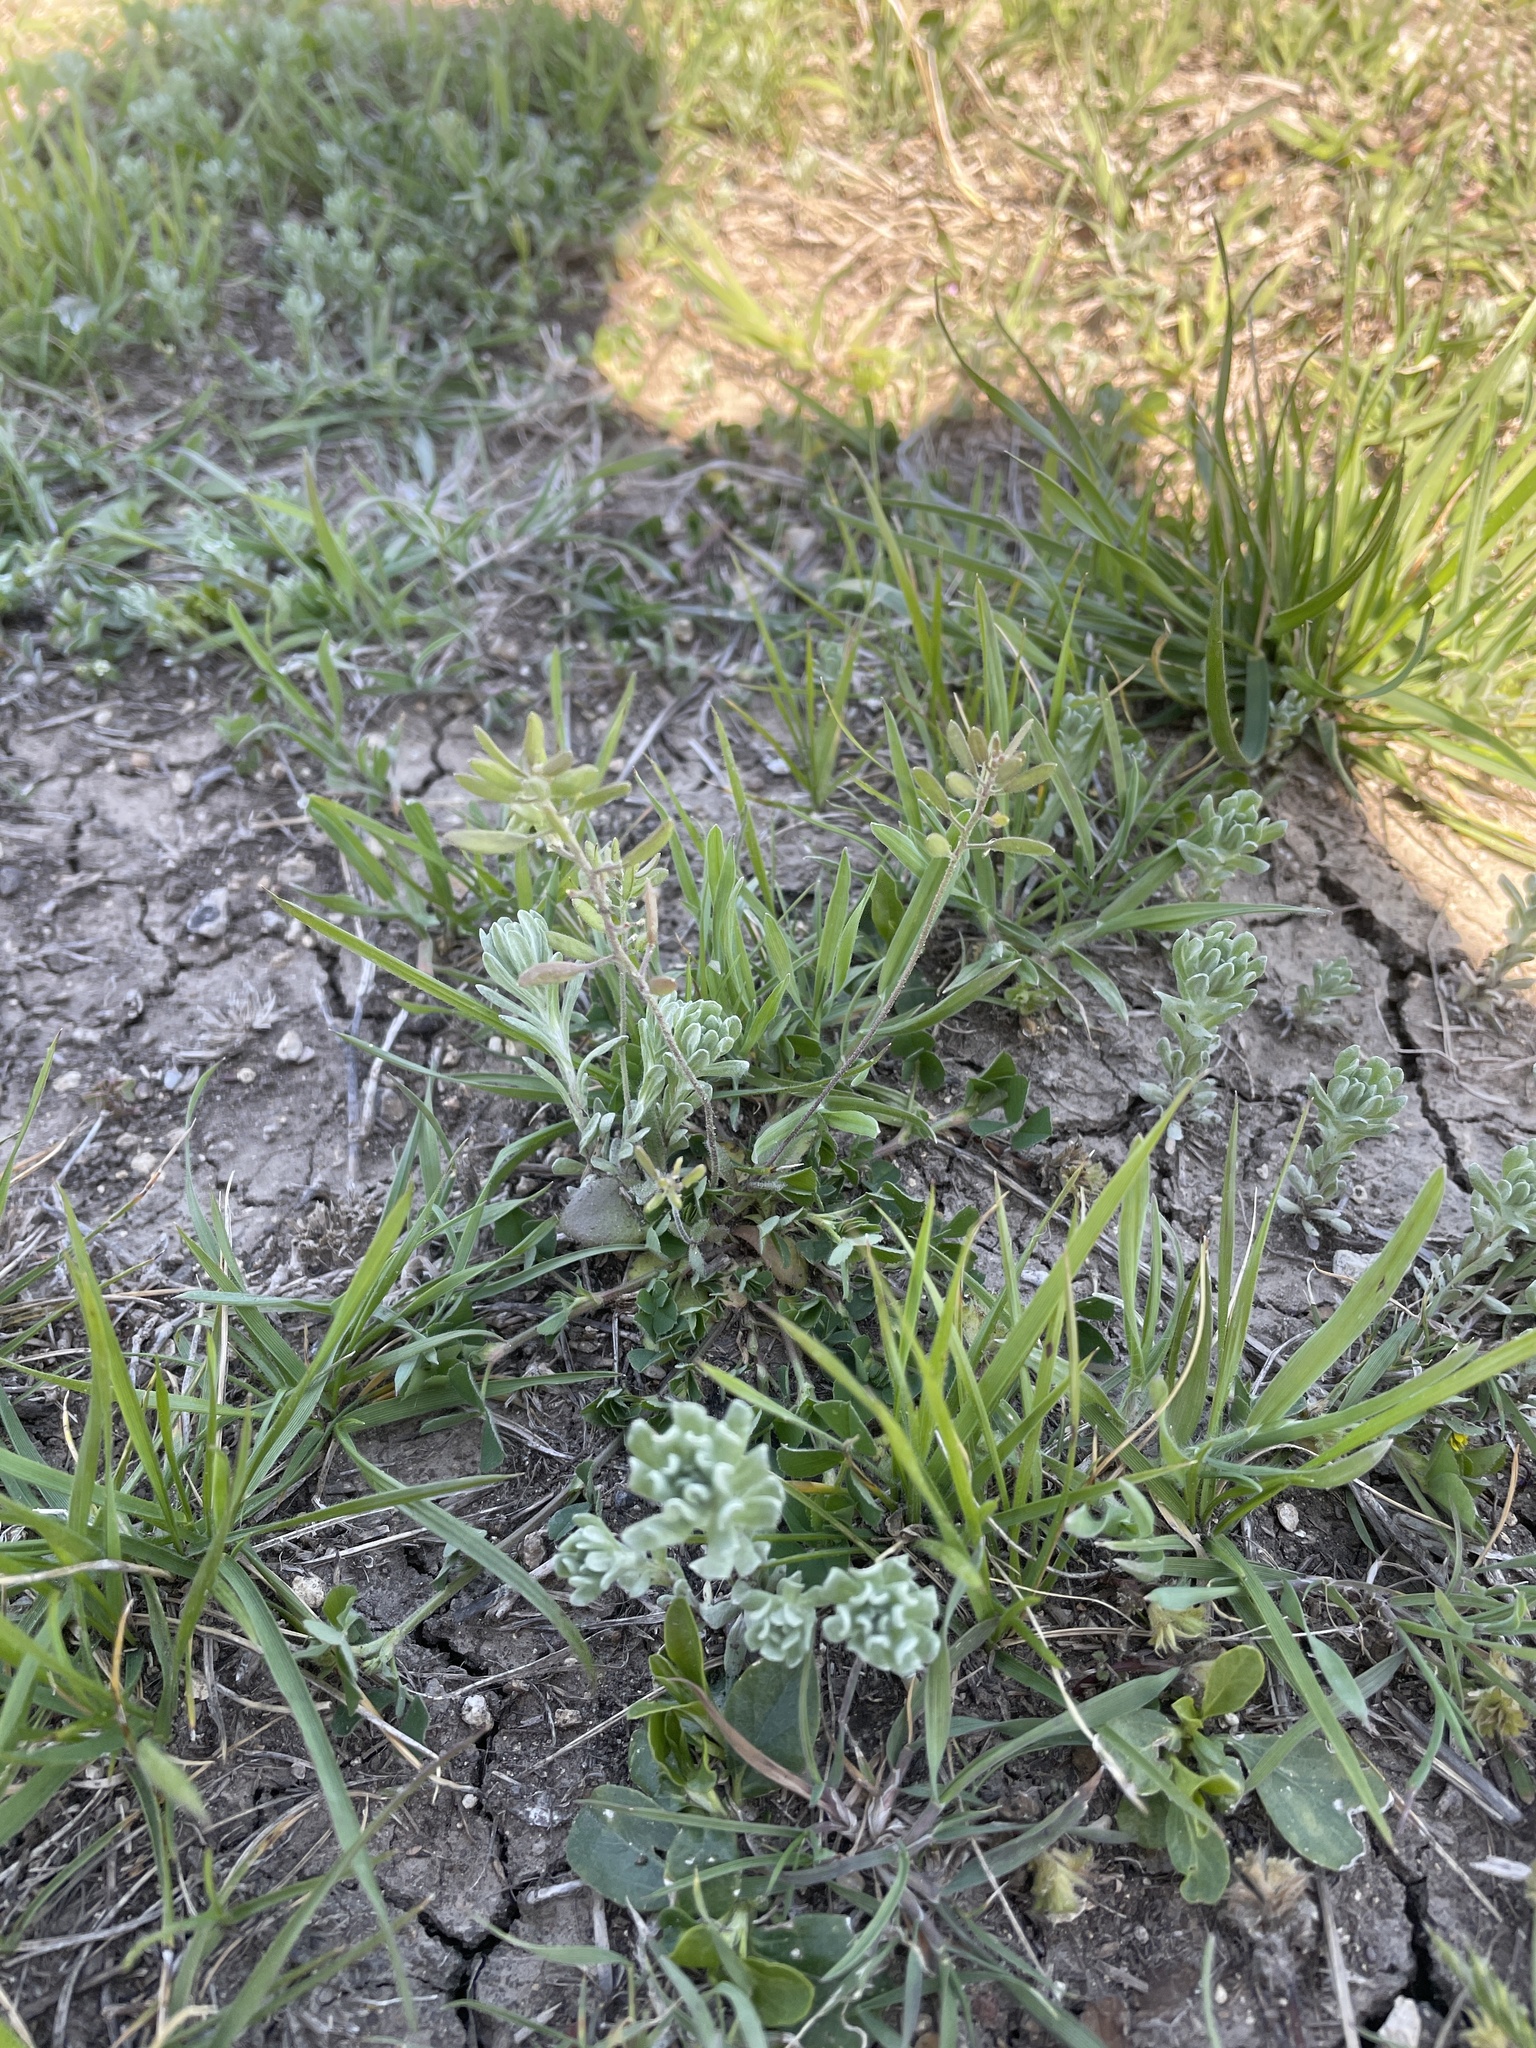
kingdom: Plantae
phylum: Tracheophyta
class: Magnoliopsida
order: Brassicales
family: Brassicaceae
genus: Tomostima
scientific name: Tomostima cuneifolia
